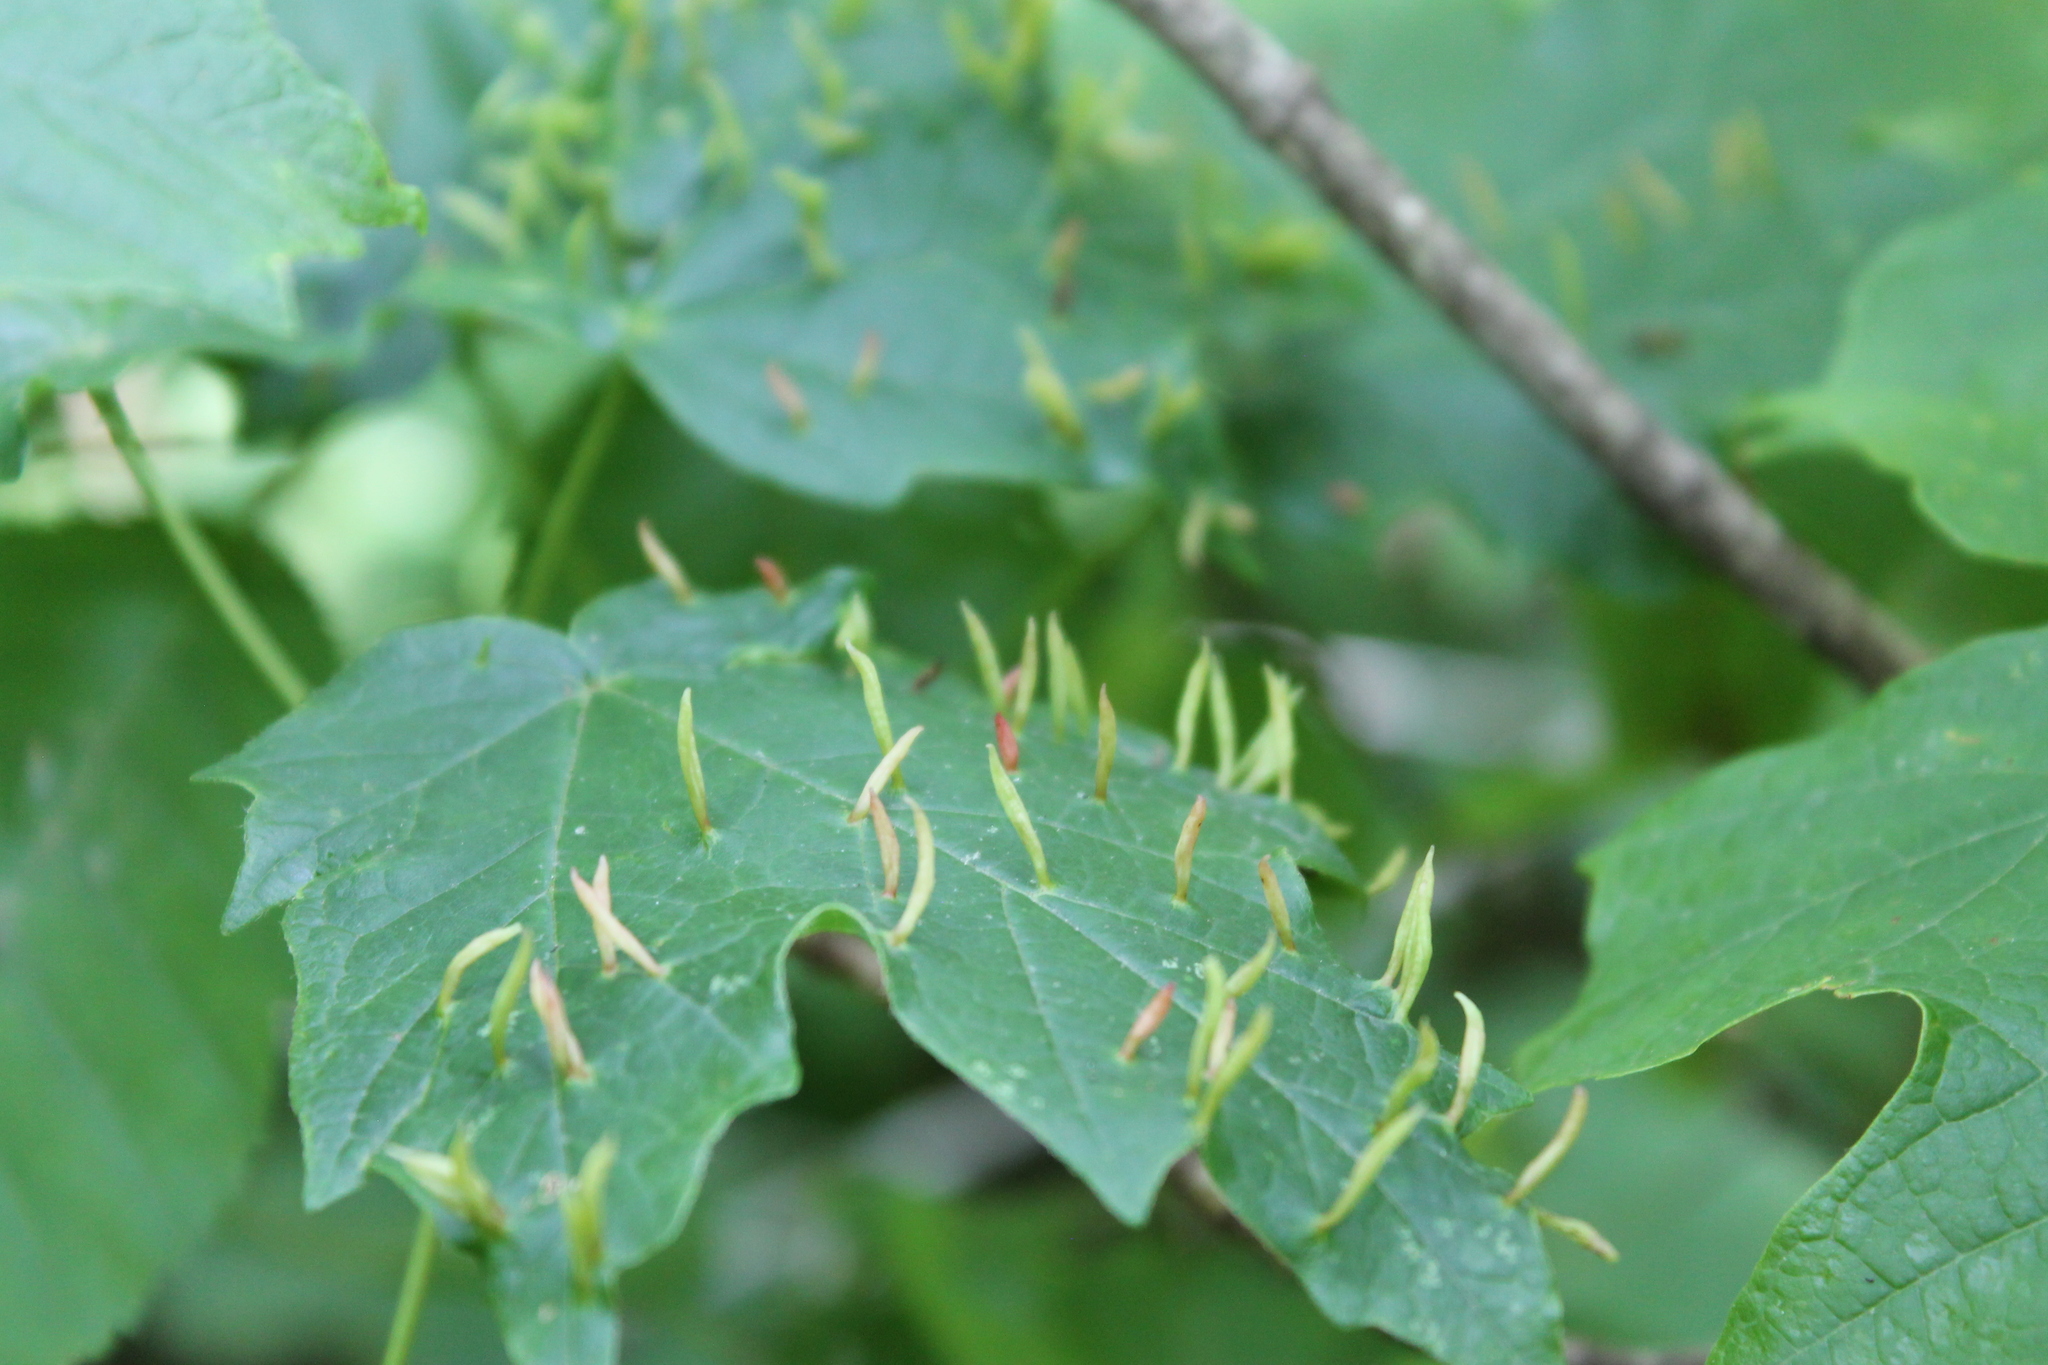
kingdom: Animalia
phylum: Arthropoda
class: Arachnida
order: Trombidiformes
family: Eriophyidae
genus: Vasates
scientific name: Vasates aceriscrumena
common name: Maple spindle gall mite
